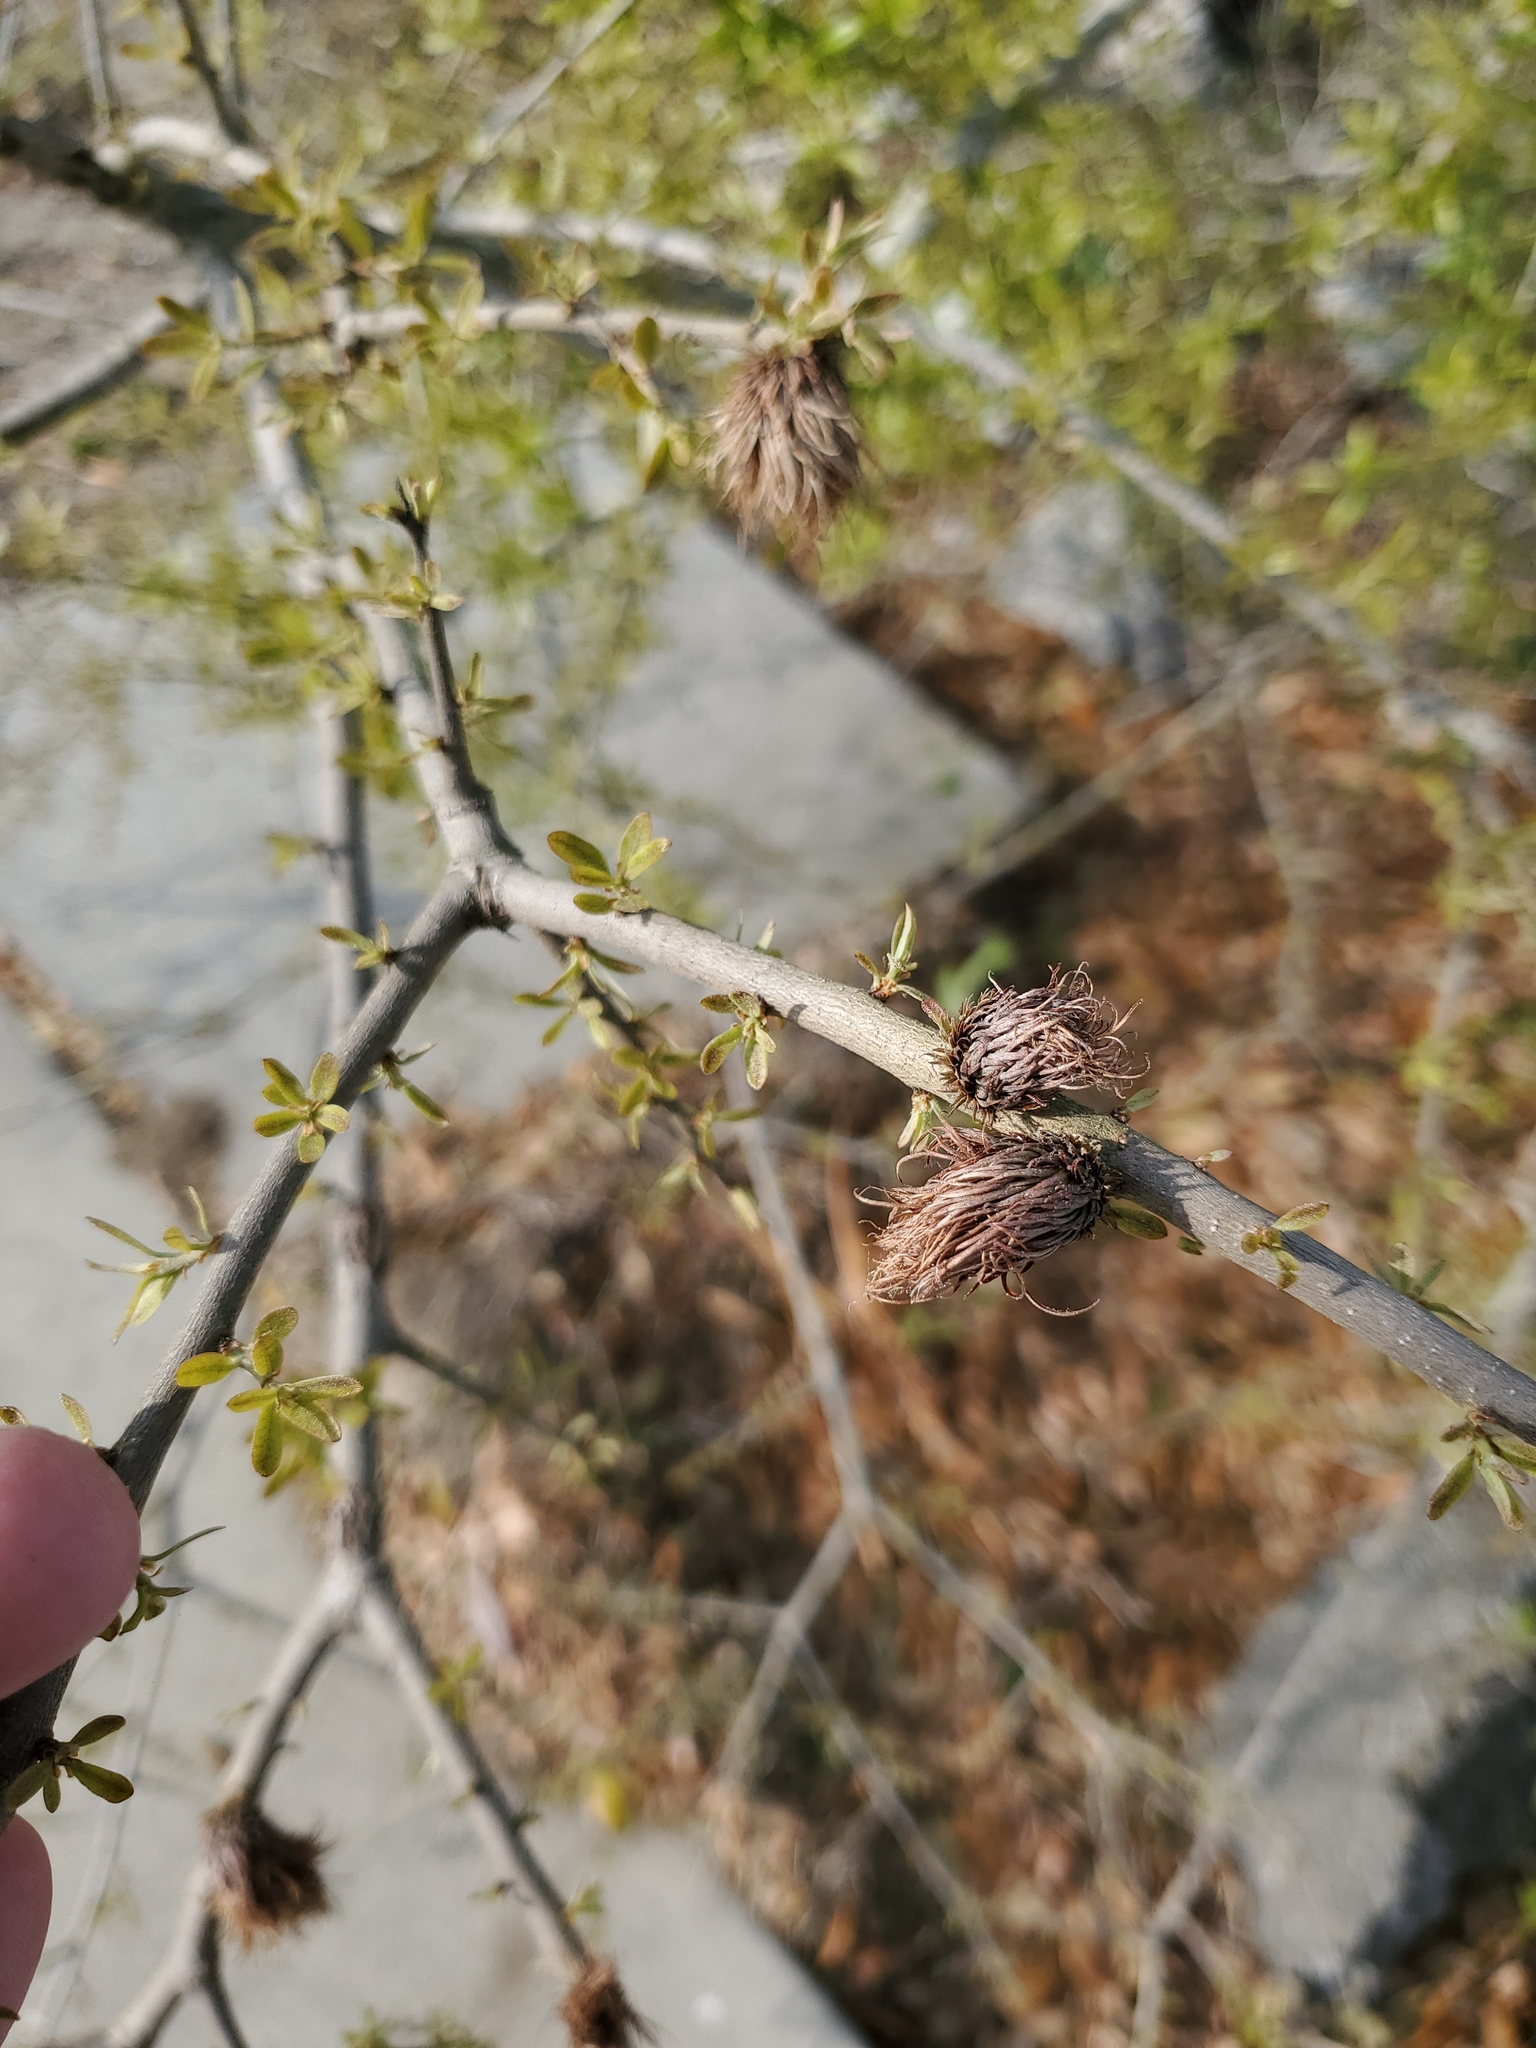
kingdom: Animalia
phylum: Arthropoda
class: Insecta
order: Hymenoptera
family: Cynipidae
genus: Andricus
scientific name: Andricus quercusfoliatus
